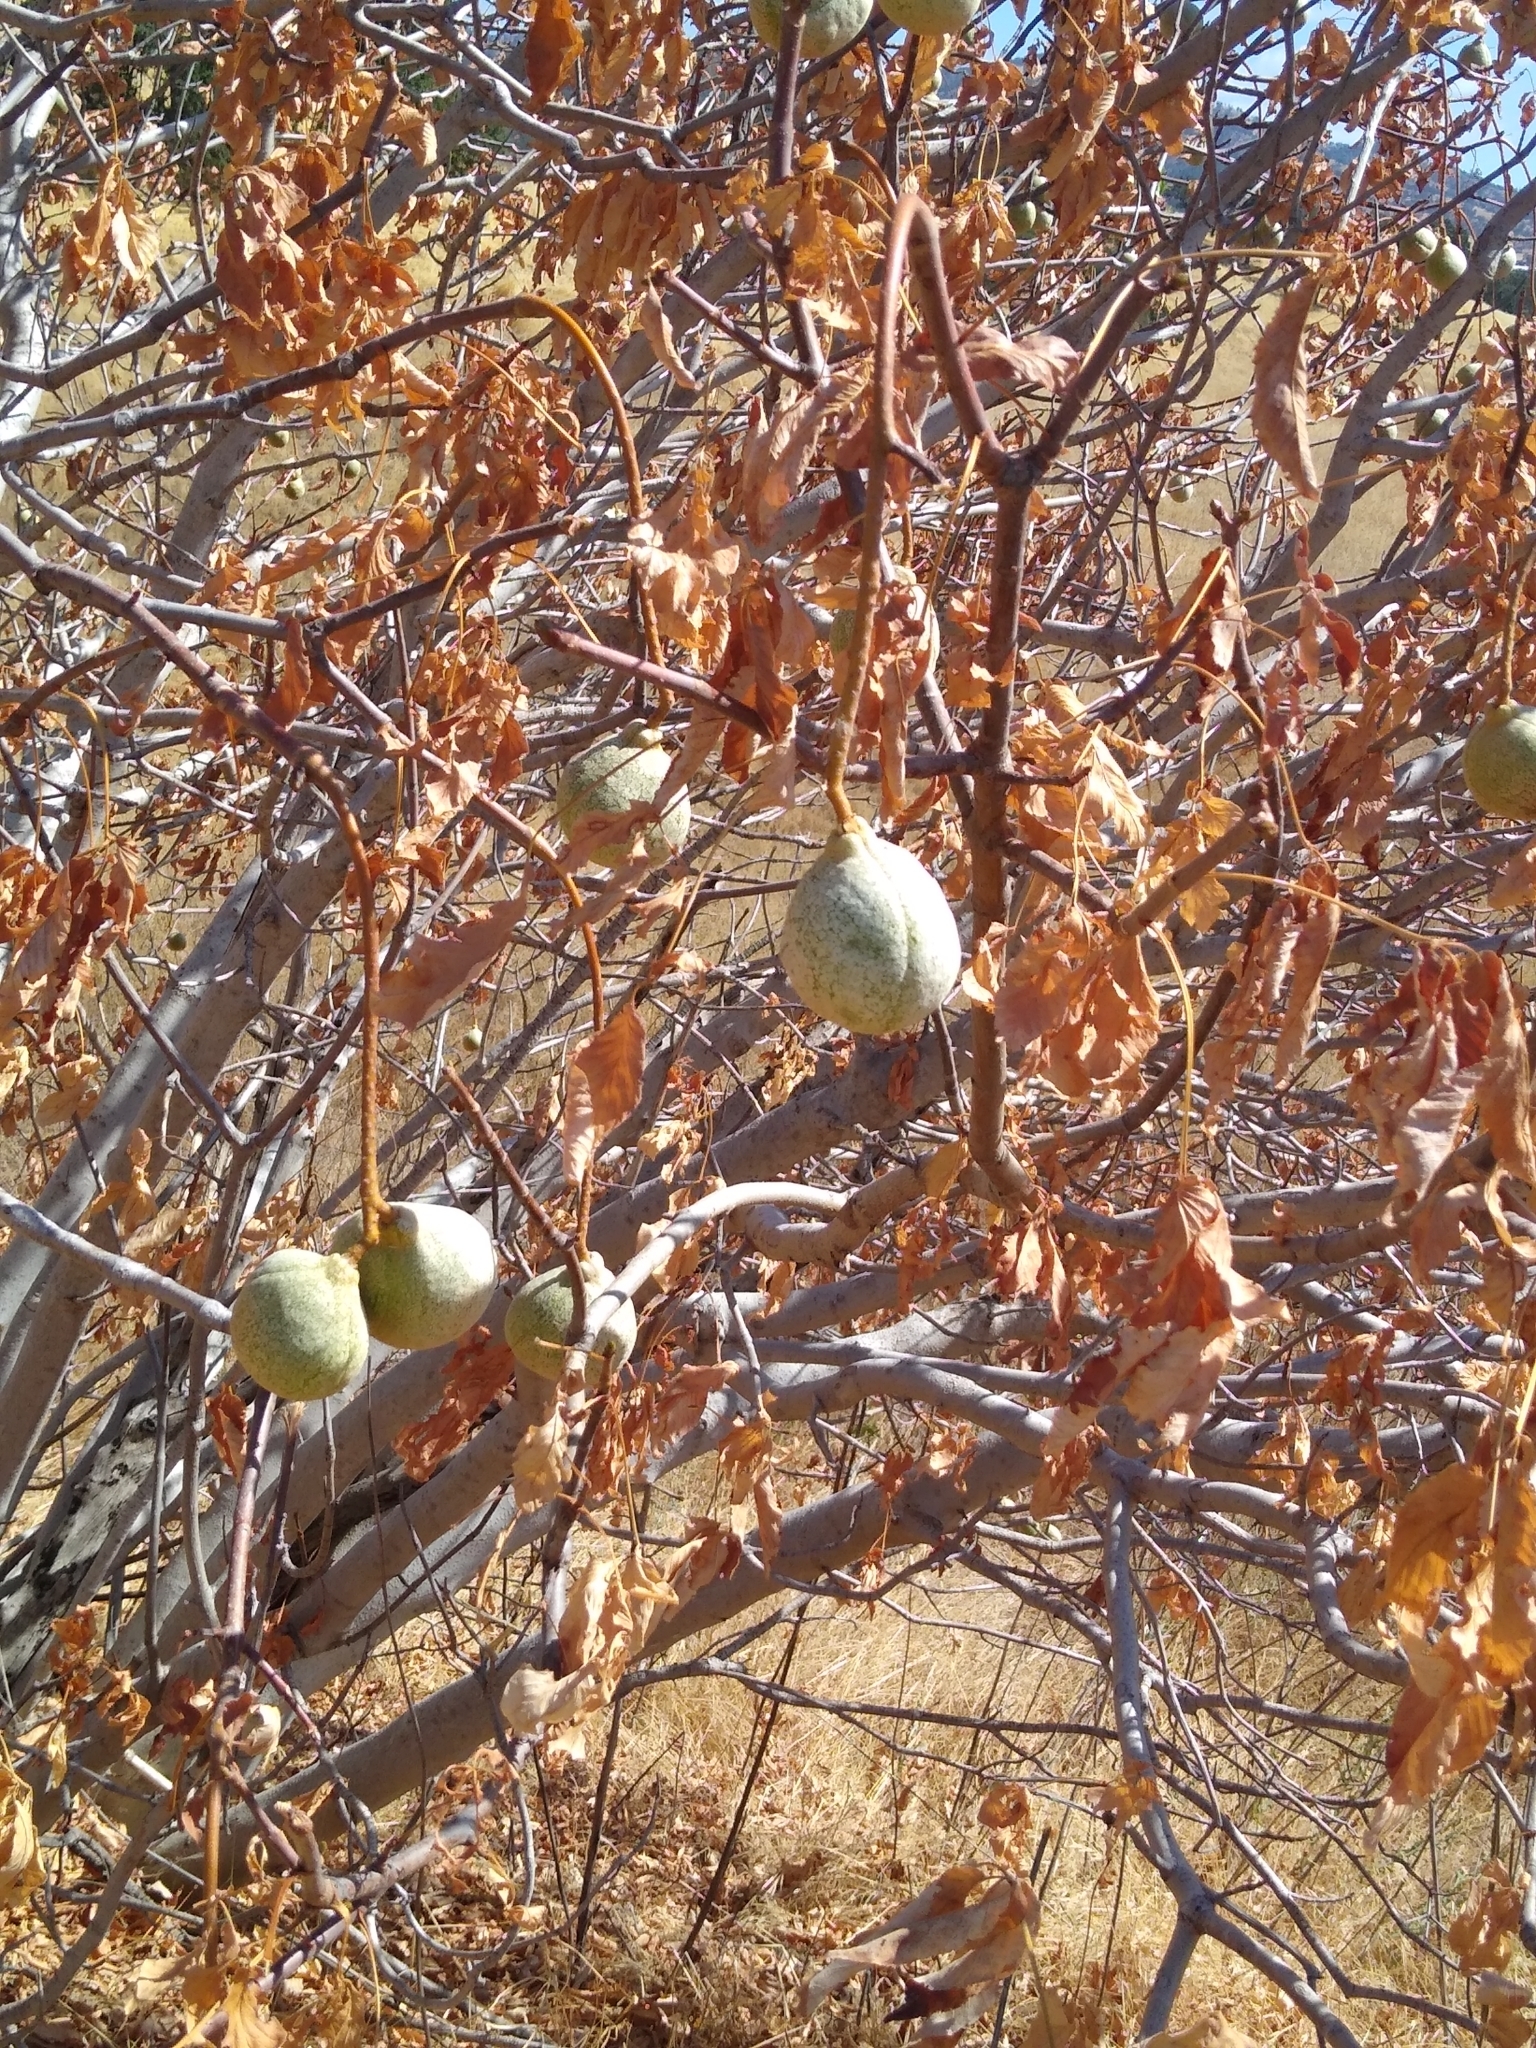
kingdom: Plantae
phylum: Tracheophyta
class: Magnoliopsida
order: Sapindales
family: Sapindaceae
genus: Aesculus
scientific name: Aesculus californica
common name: California buckeye
